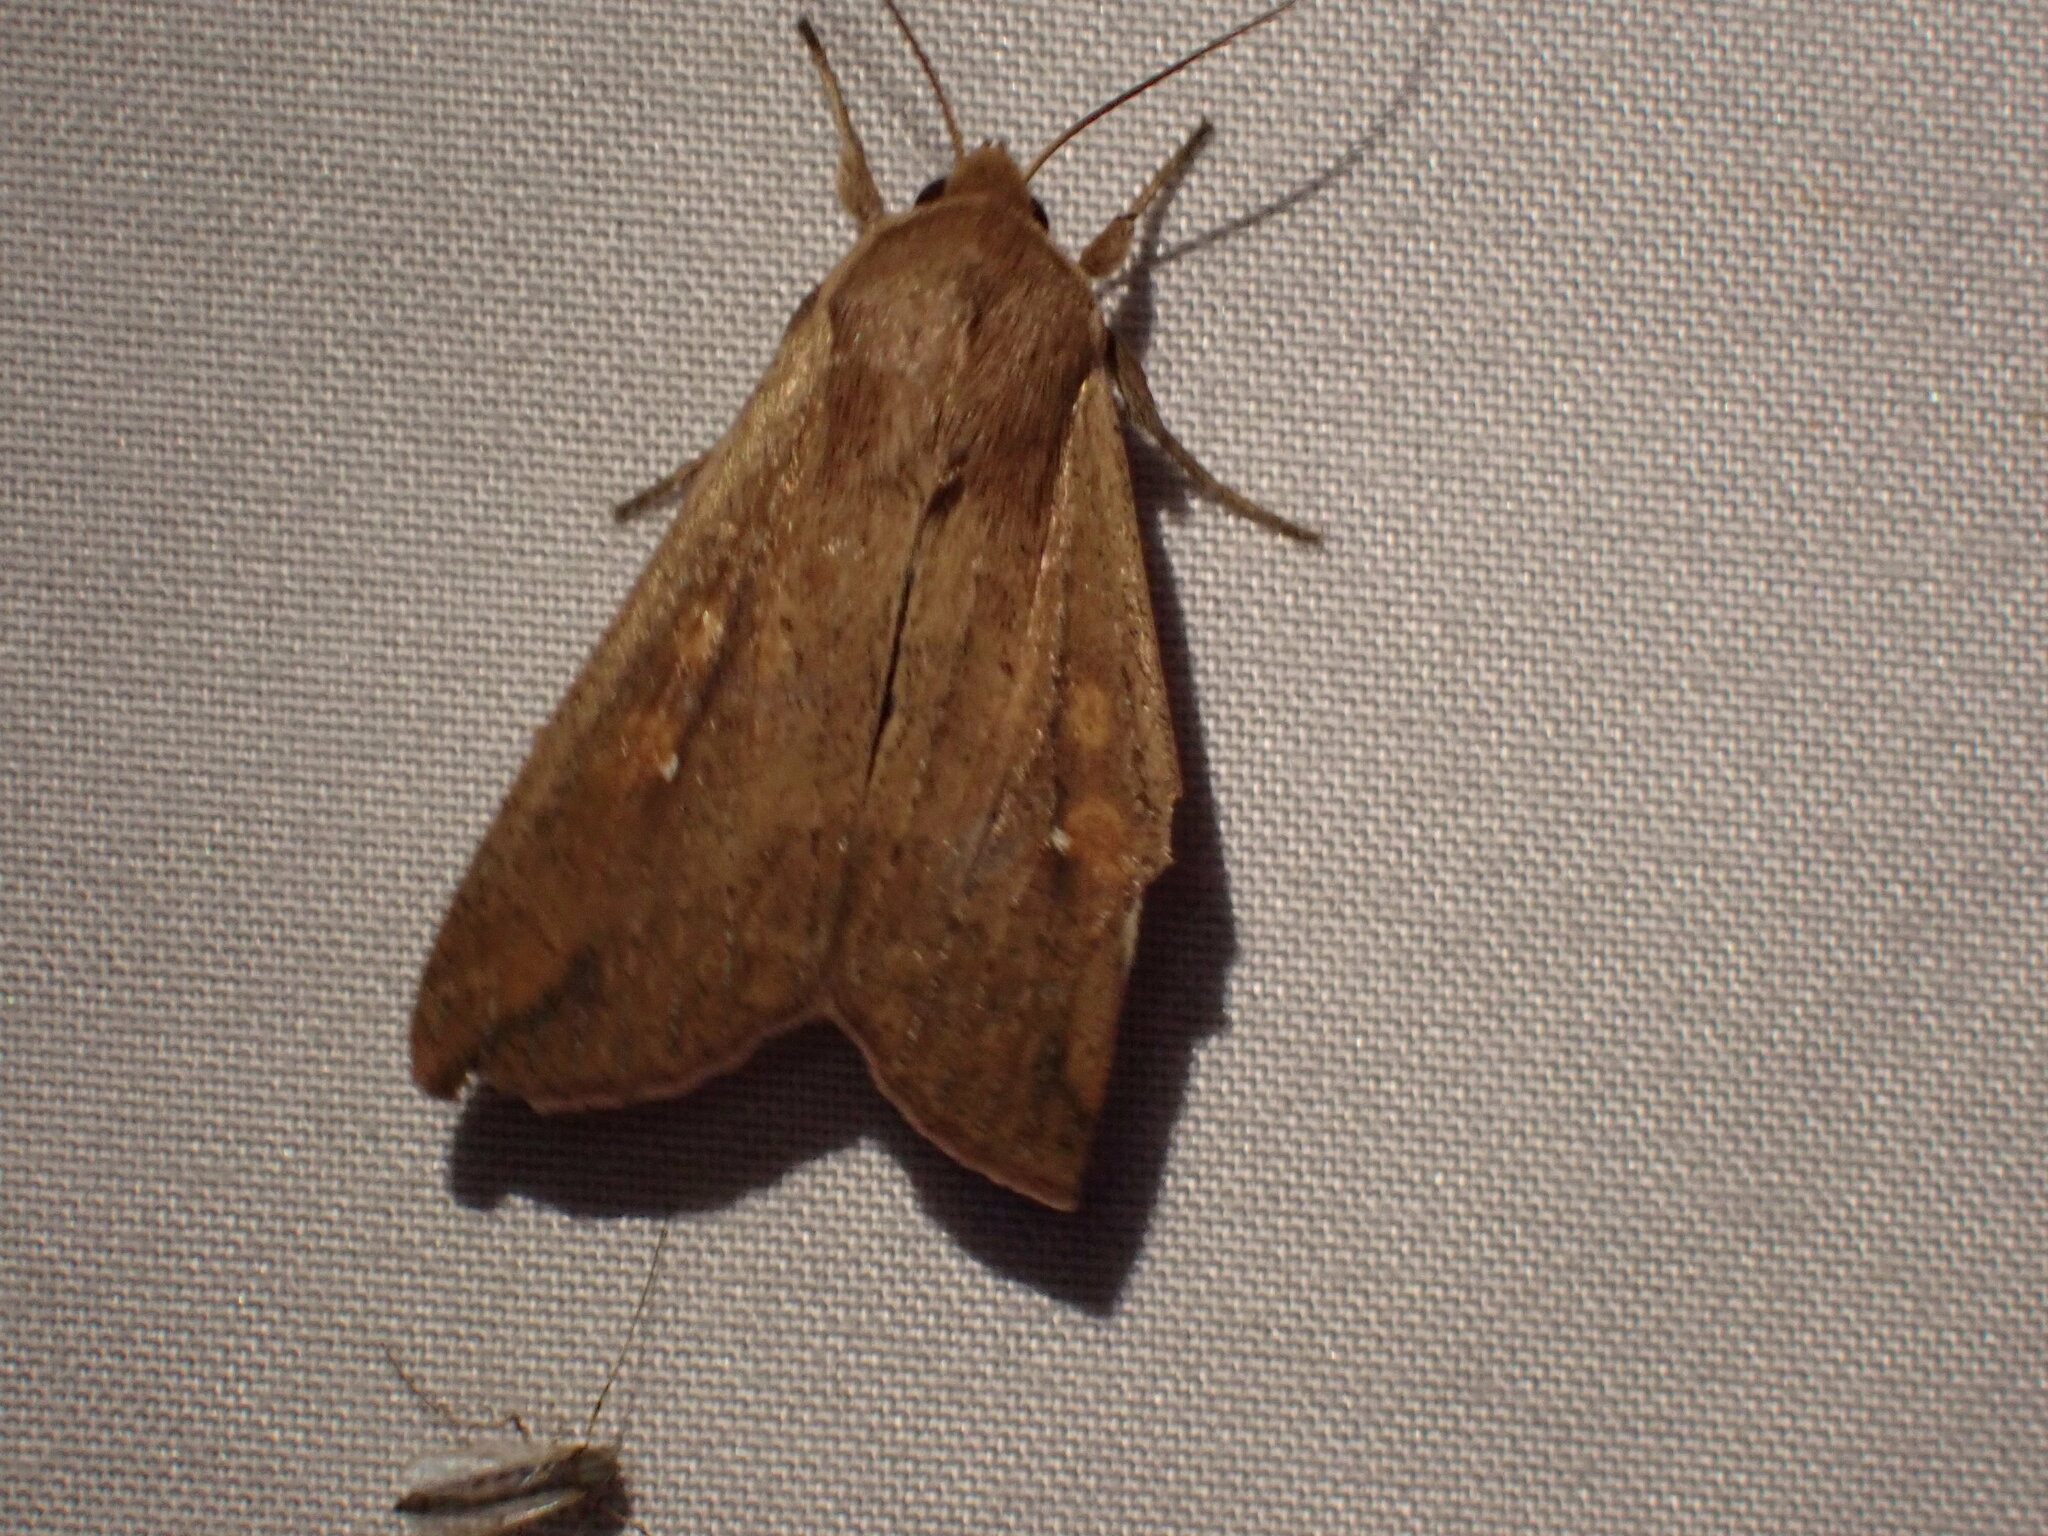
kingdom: Animalia
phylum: Arthropoda
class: Insecta
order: Lepidoptera
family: Noctuidae
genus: Mythimna
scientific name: Mythimna unipuncta
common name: White-speck
